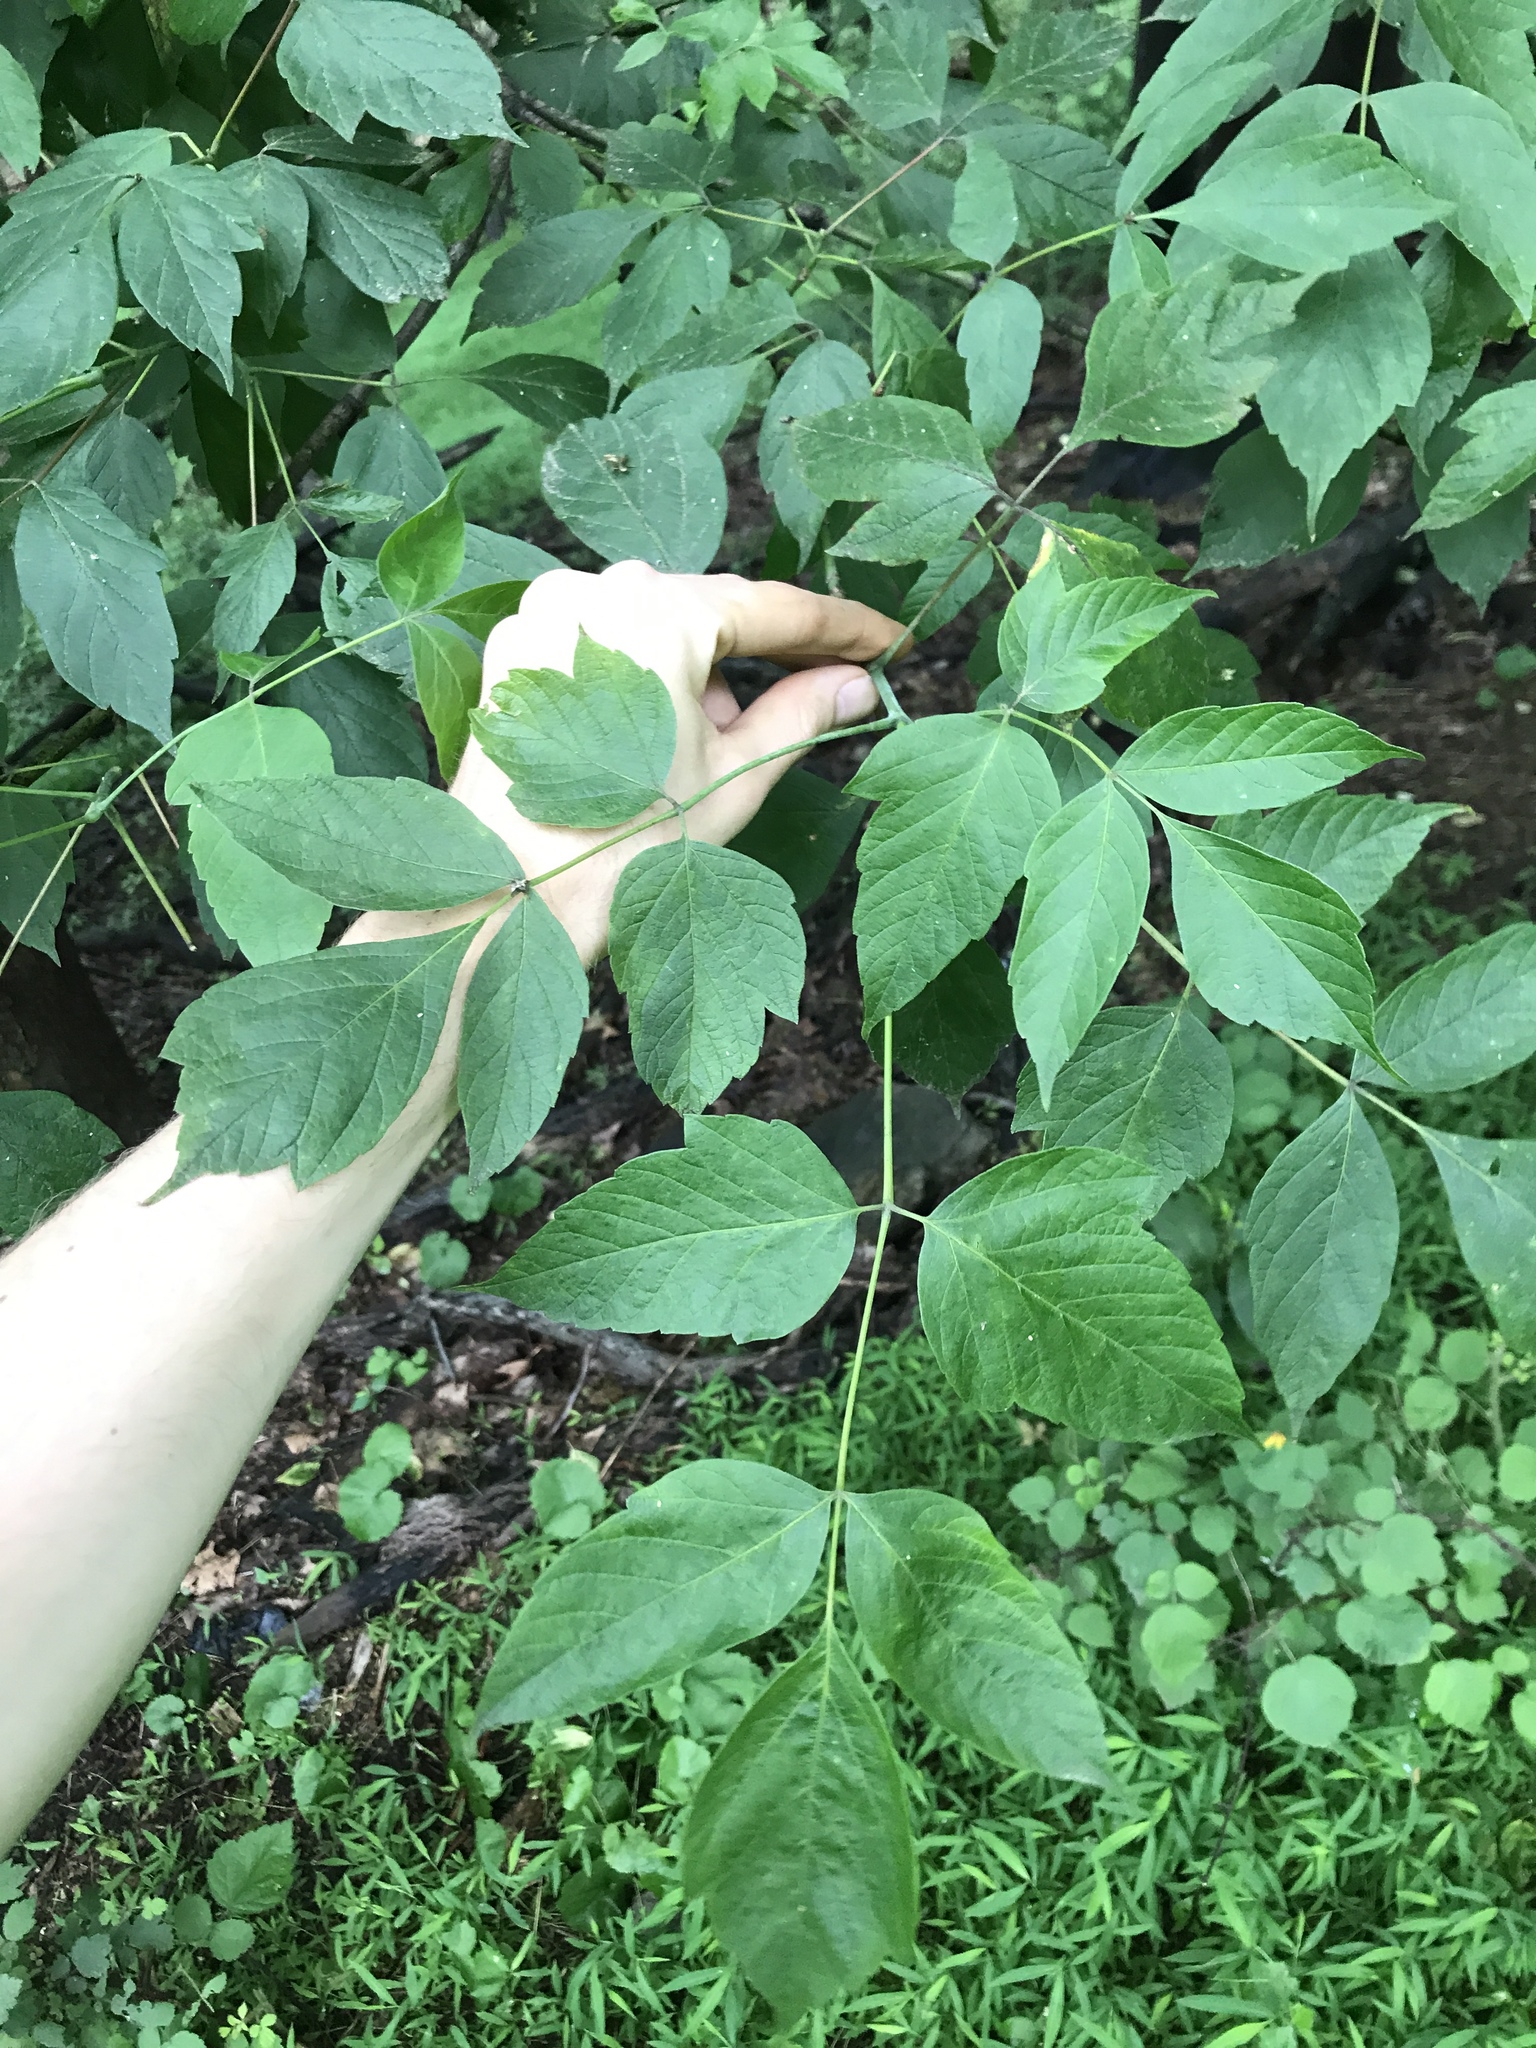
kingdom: Plantae
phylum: Tracheophyta
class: Magnoliopsida
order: Sapindales
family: Sapindaceae
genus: Acer
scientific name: Acer negundo
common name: Ashleaf maple
